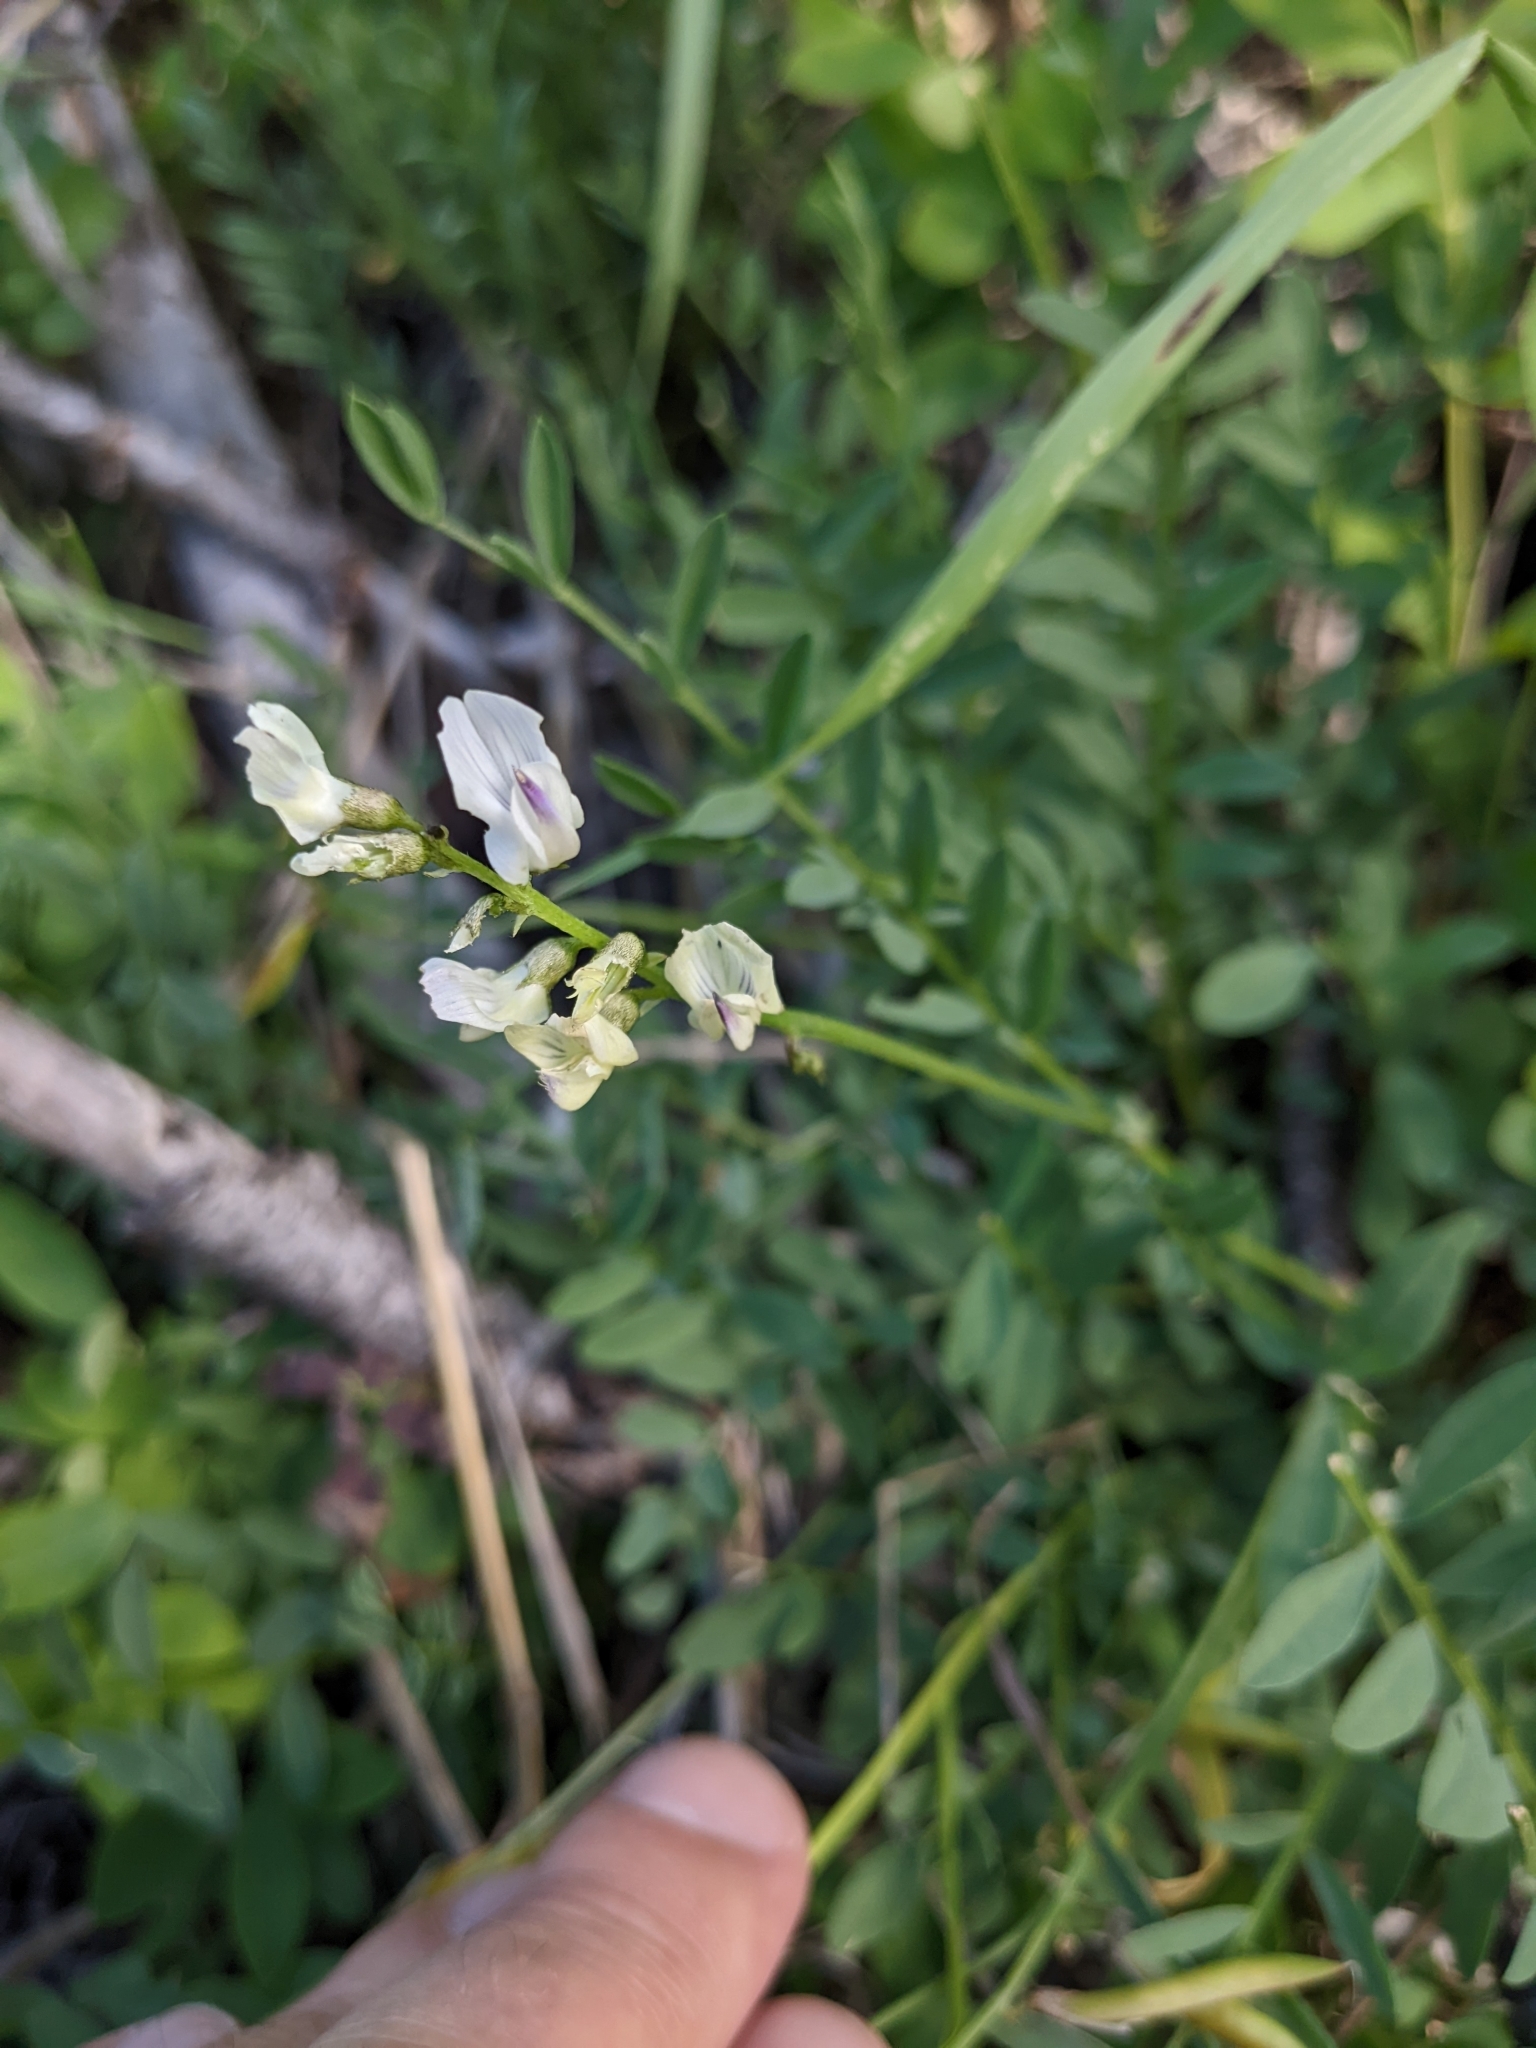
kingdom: Plantae
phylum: Tracheophyta
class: Magnoliopsida
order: Fabales
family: Fabaceae
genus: Astragalus
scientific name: Astragalus miser
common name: Timber milkvetch
